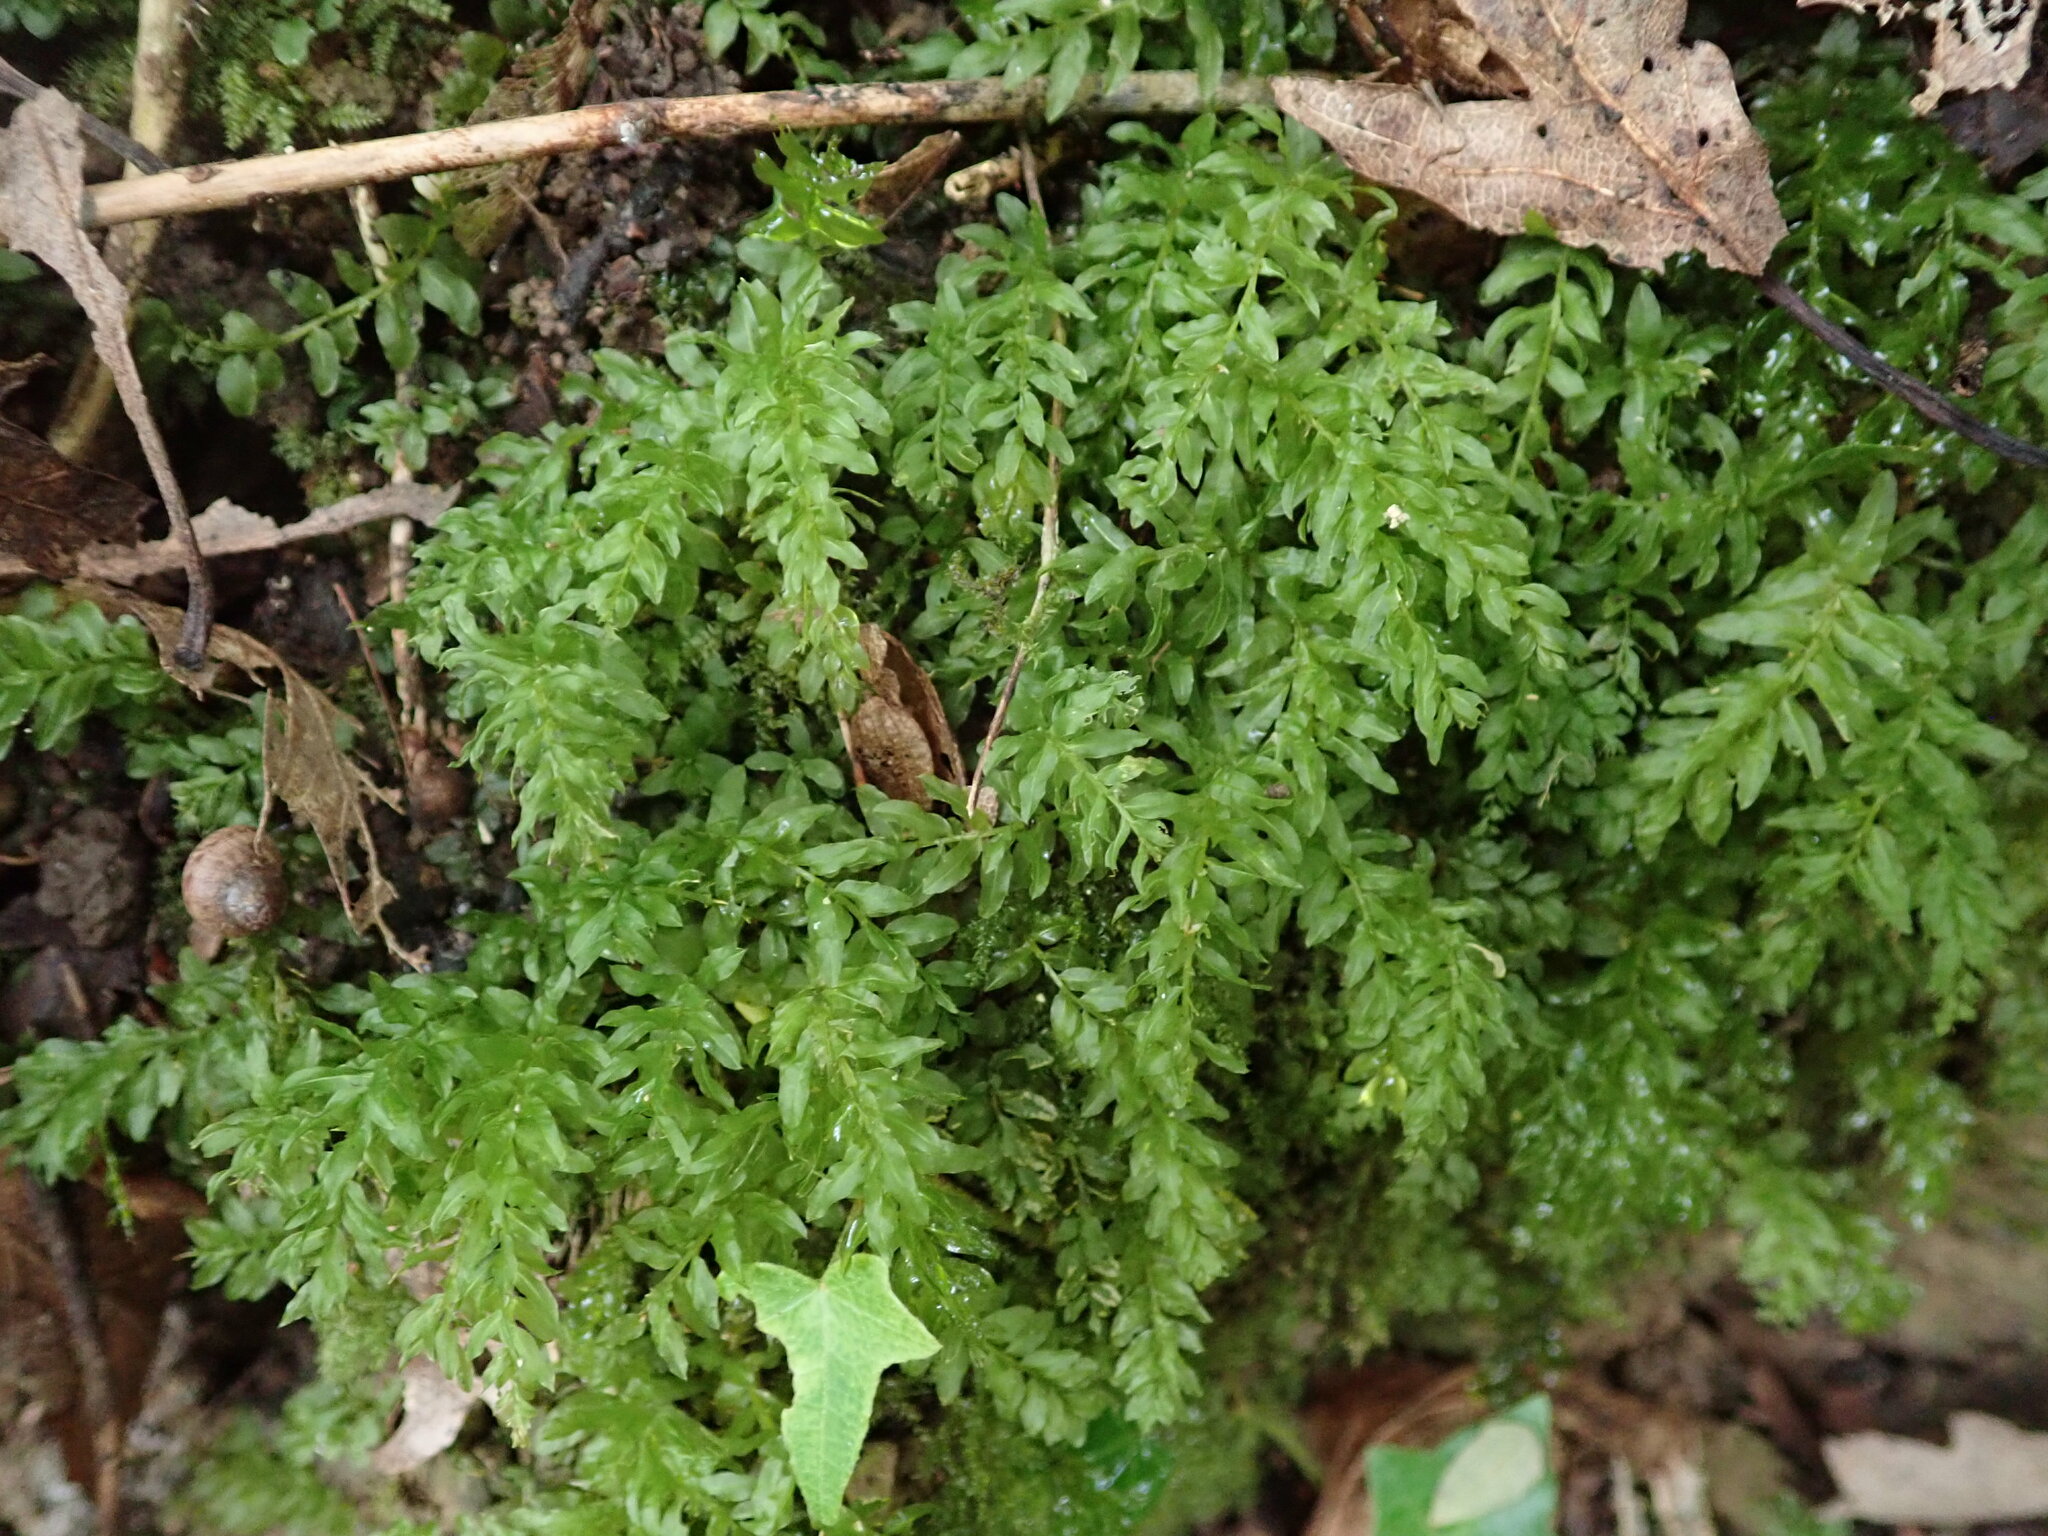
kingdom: Plantae
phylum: Bryophyta
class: Bryopsida
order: Bryales
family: Mniaceae
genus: Plagiomnium
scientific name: Plagiomnium undulatum
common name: Hart's-tongue thyme-moss
